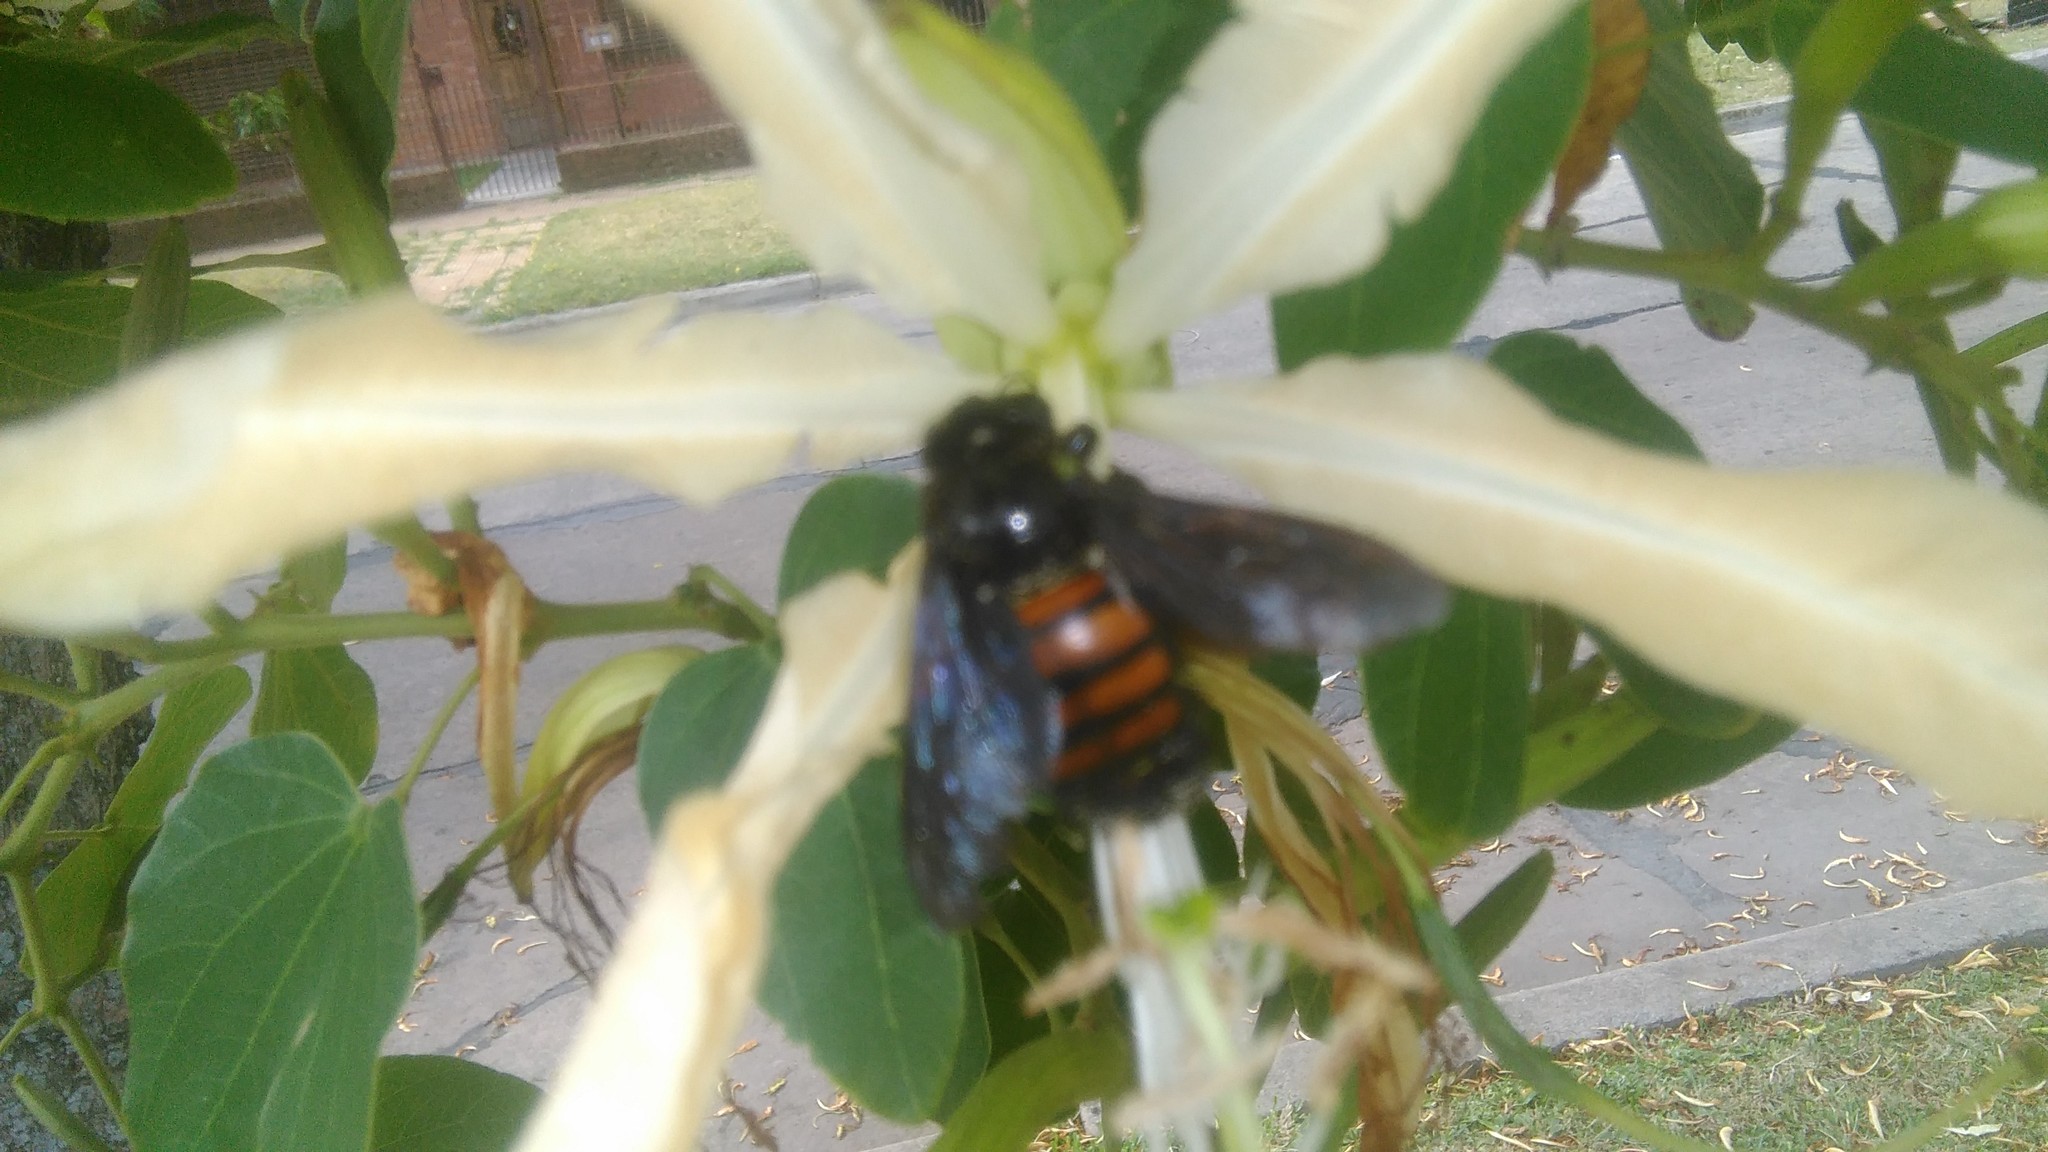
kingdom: Animalia
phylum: Arthropoda
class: Insecta
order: Hymenoptera
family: Apidae
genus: Xylocopa
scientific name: Xylocopa frontalis
